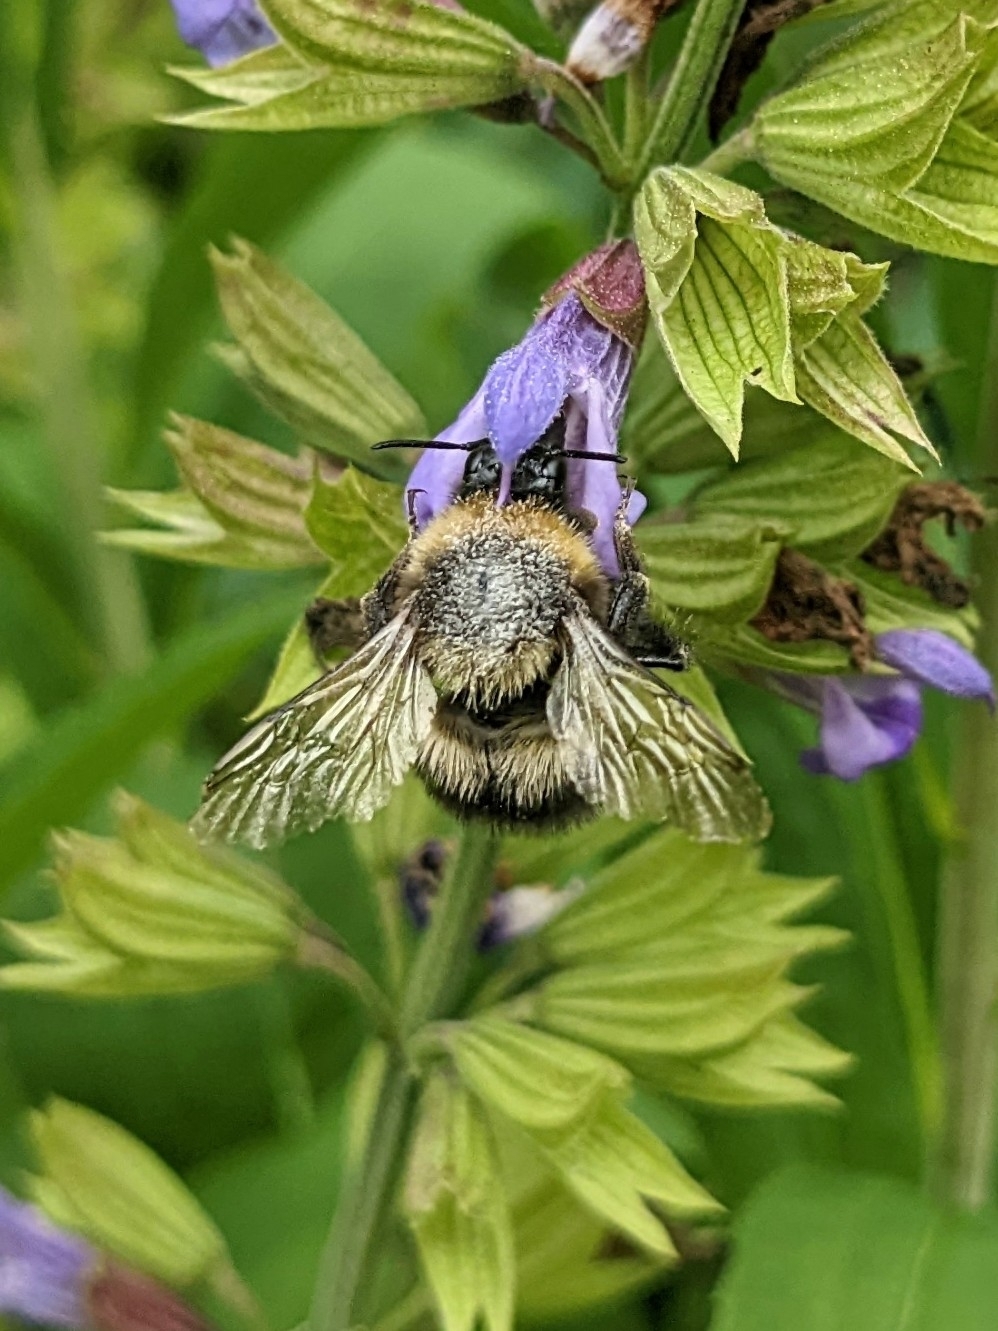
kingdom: Animalia
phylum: Arthropoda
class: Insecta
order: Hymenoptera
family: Apidae
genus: Bombus
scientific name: Bombus hortorum
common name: Garden bumblebee
